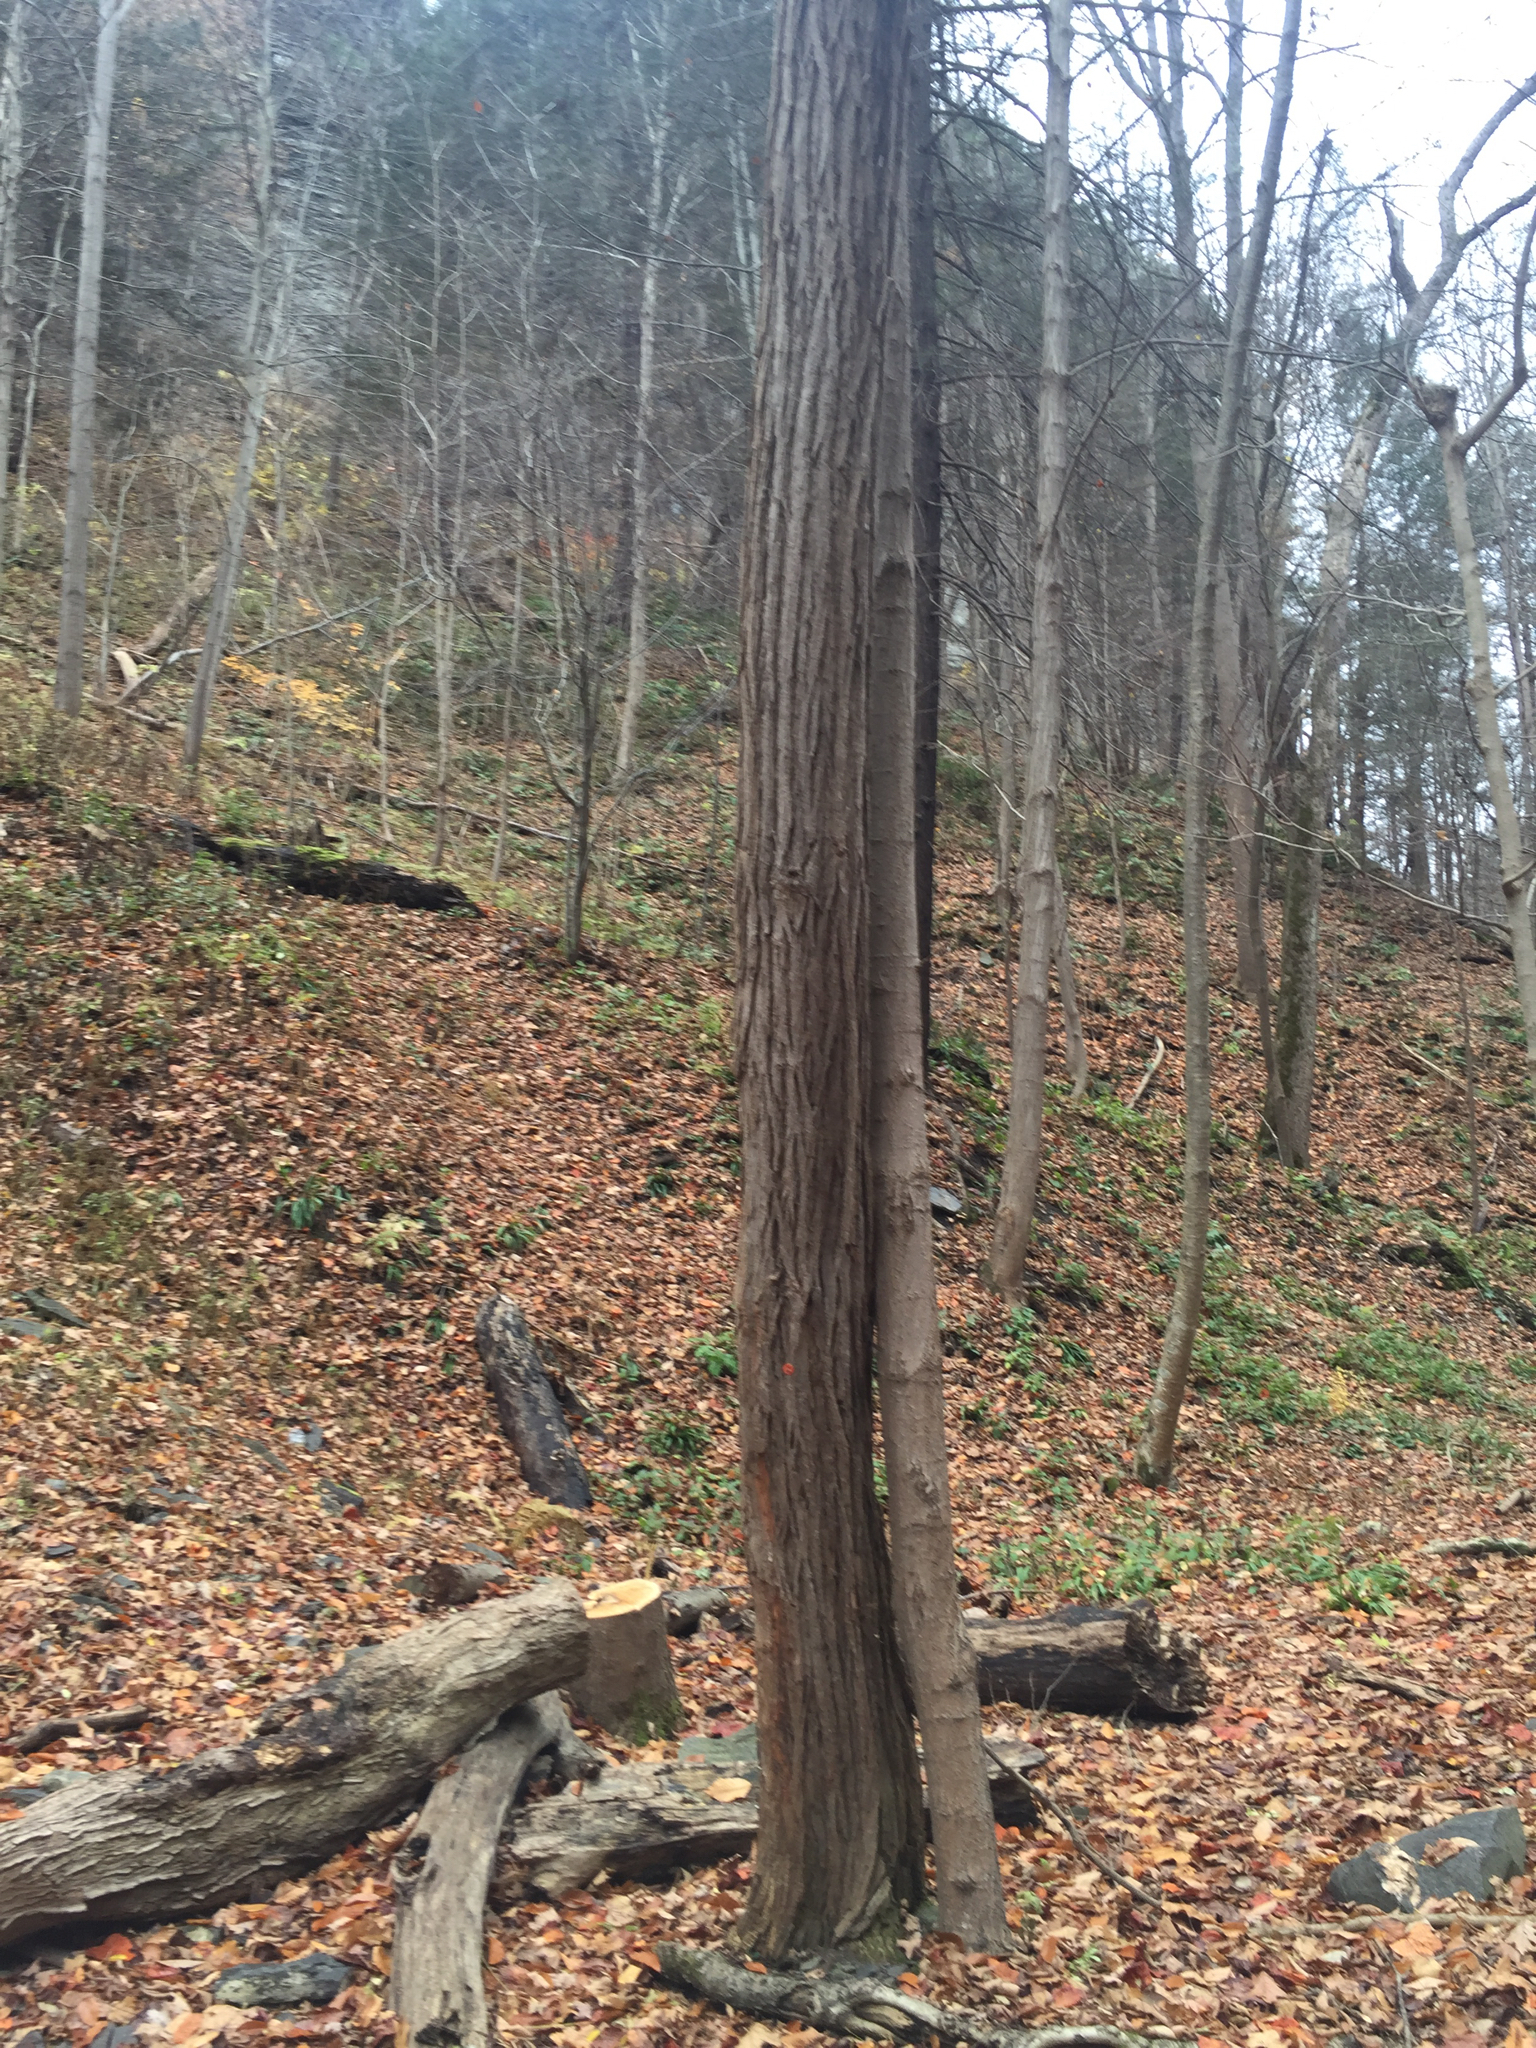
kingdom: Plantae
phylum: Tracheophyta
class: Magnoliopsida
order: Fabales
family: Fabaceae
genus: Robinia
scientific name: Robinia pseudoacacia
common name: Black locust
